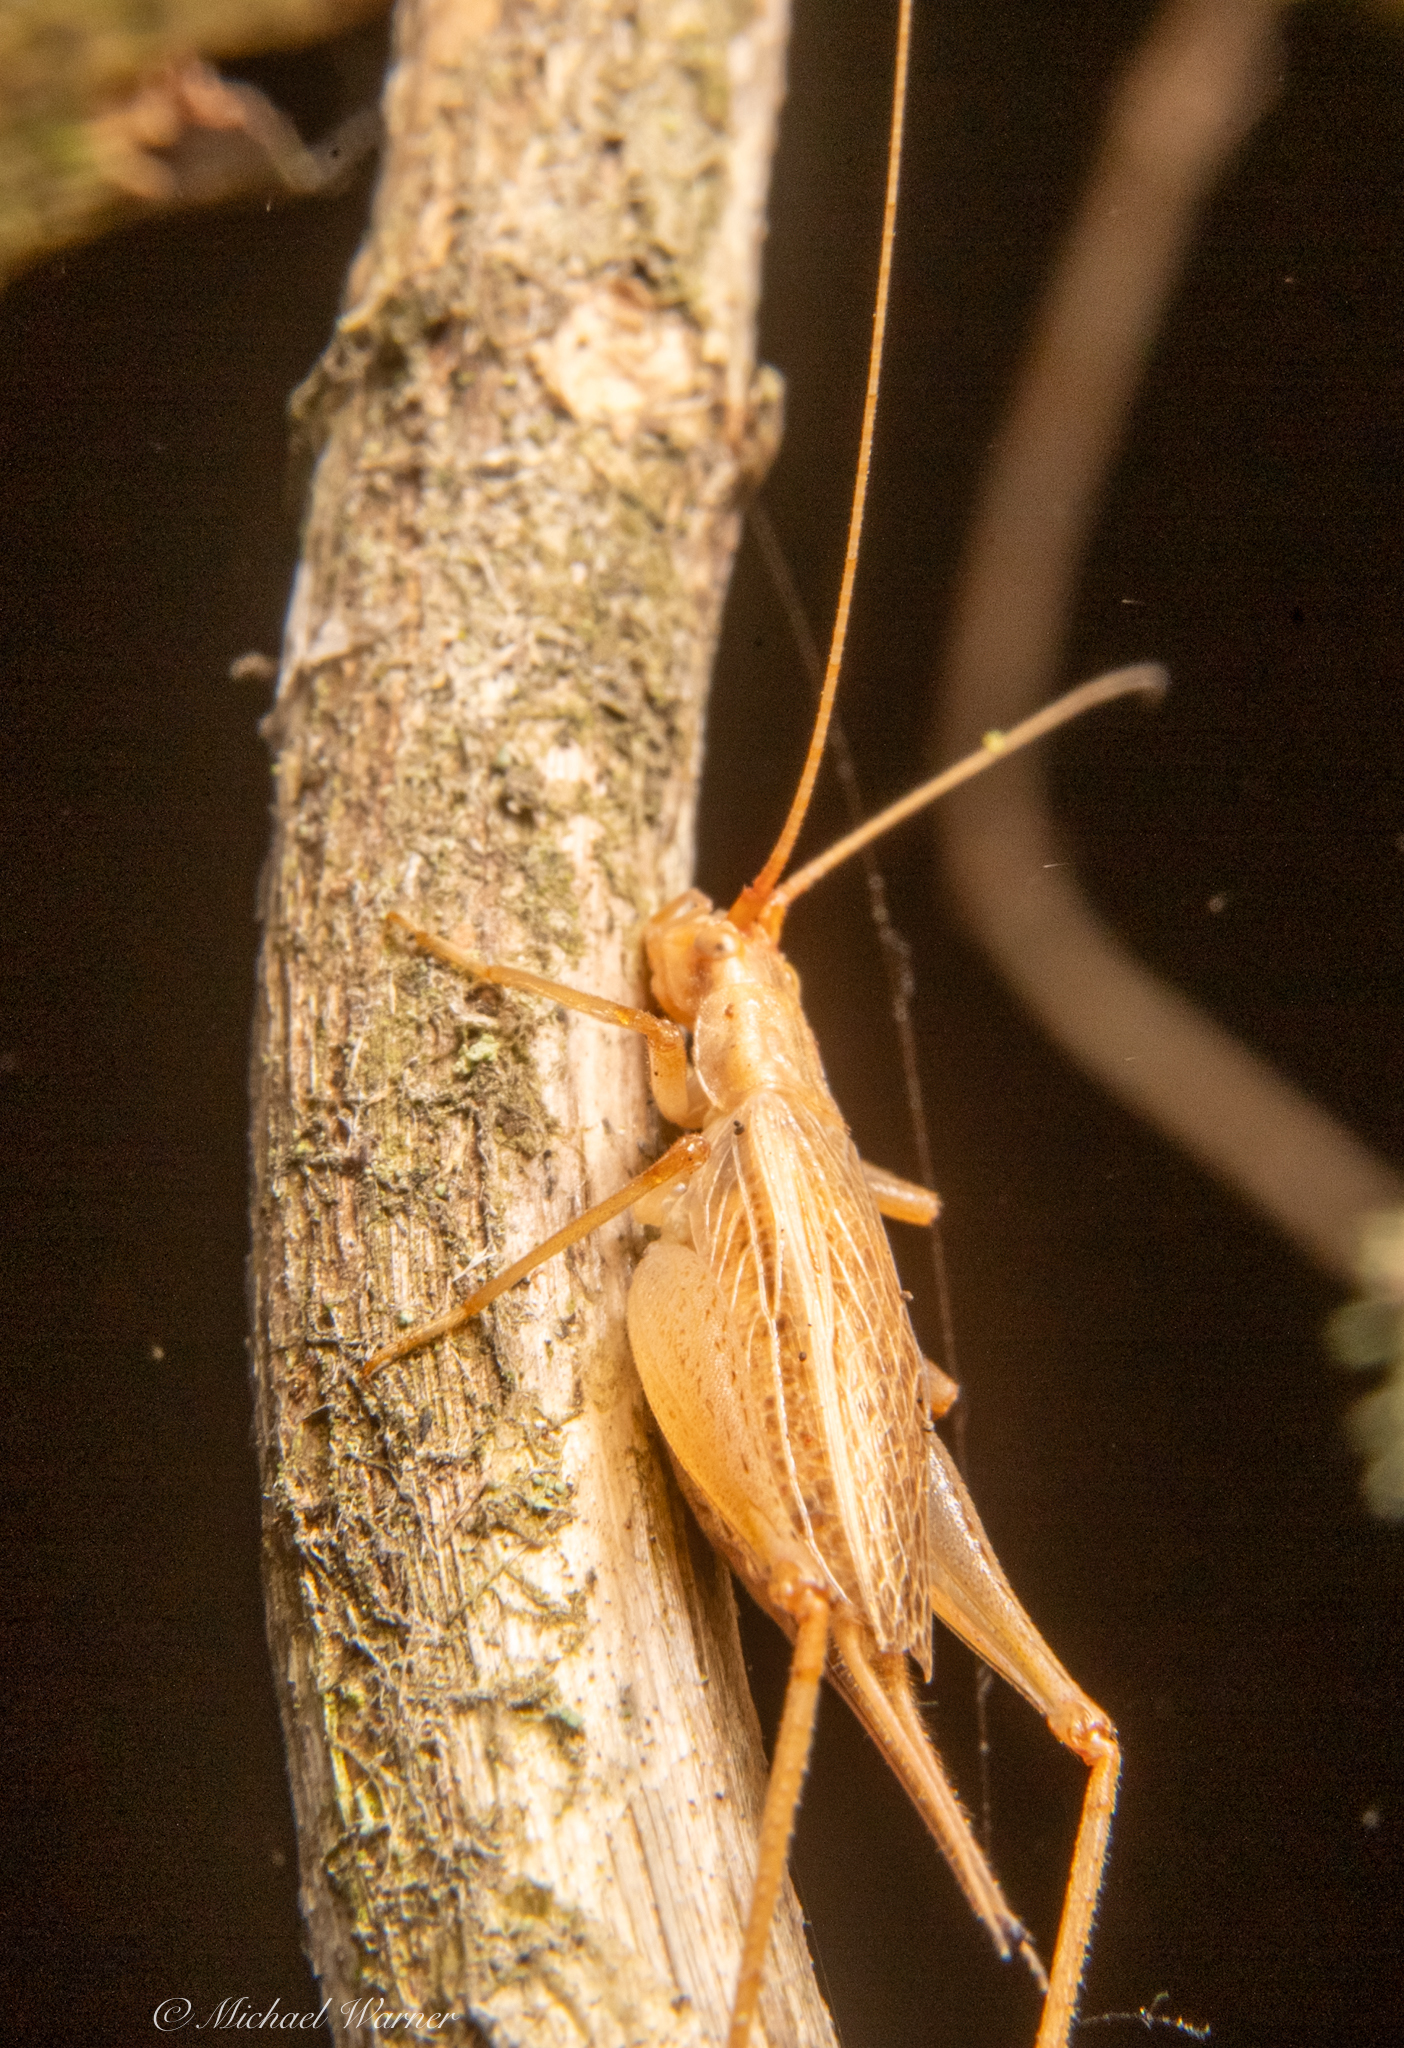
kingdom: Animalia
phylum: Arthropoda
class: Insecta
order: Orthoptera
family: Gryllidae
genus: Oecanthus
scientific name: Oecanthus californicus
